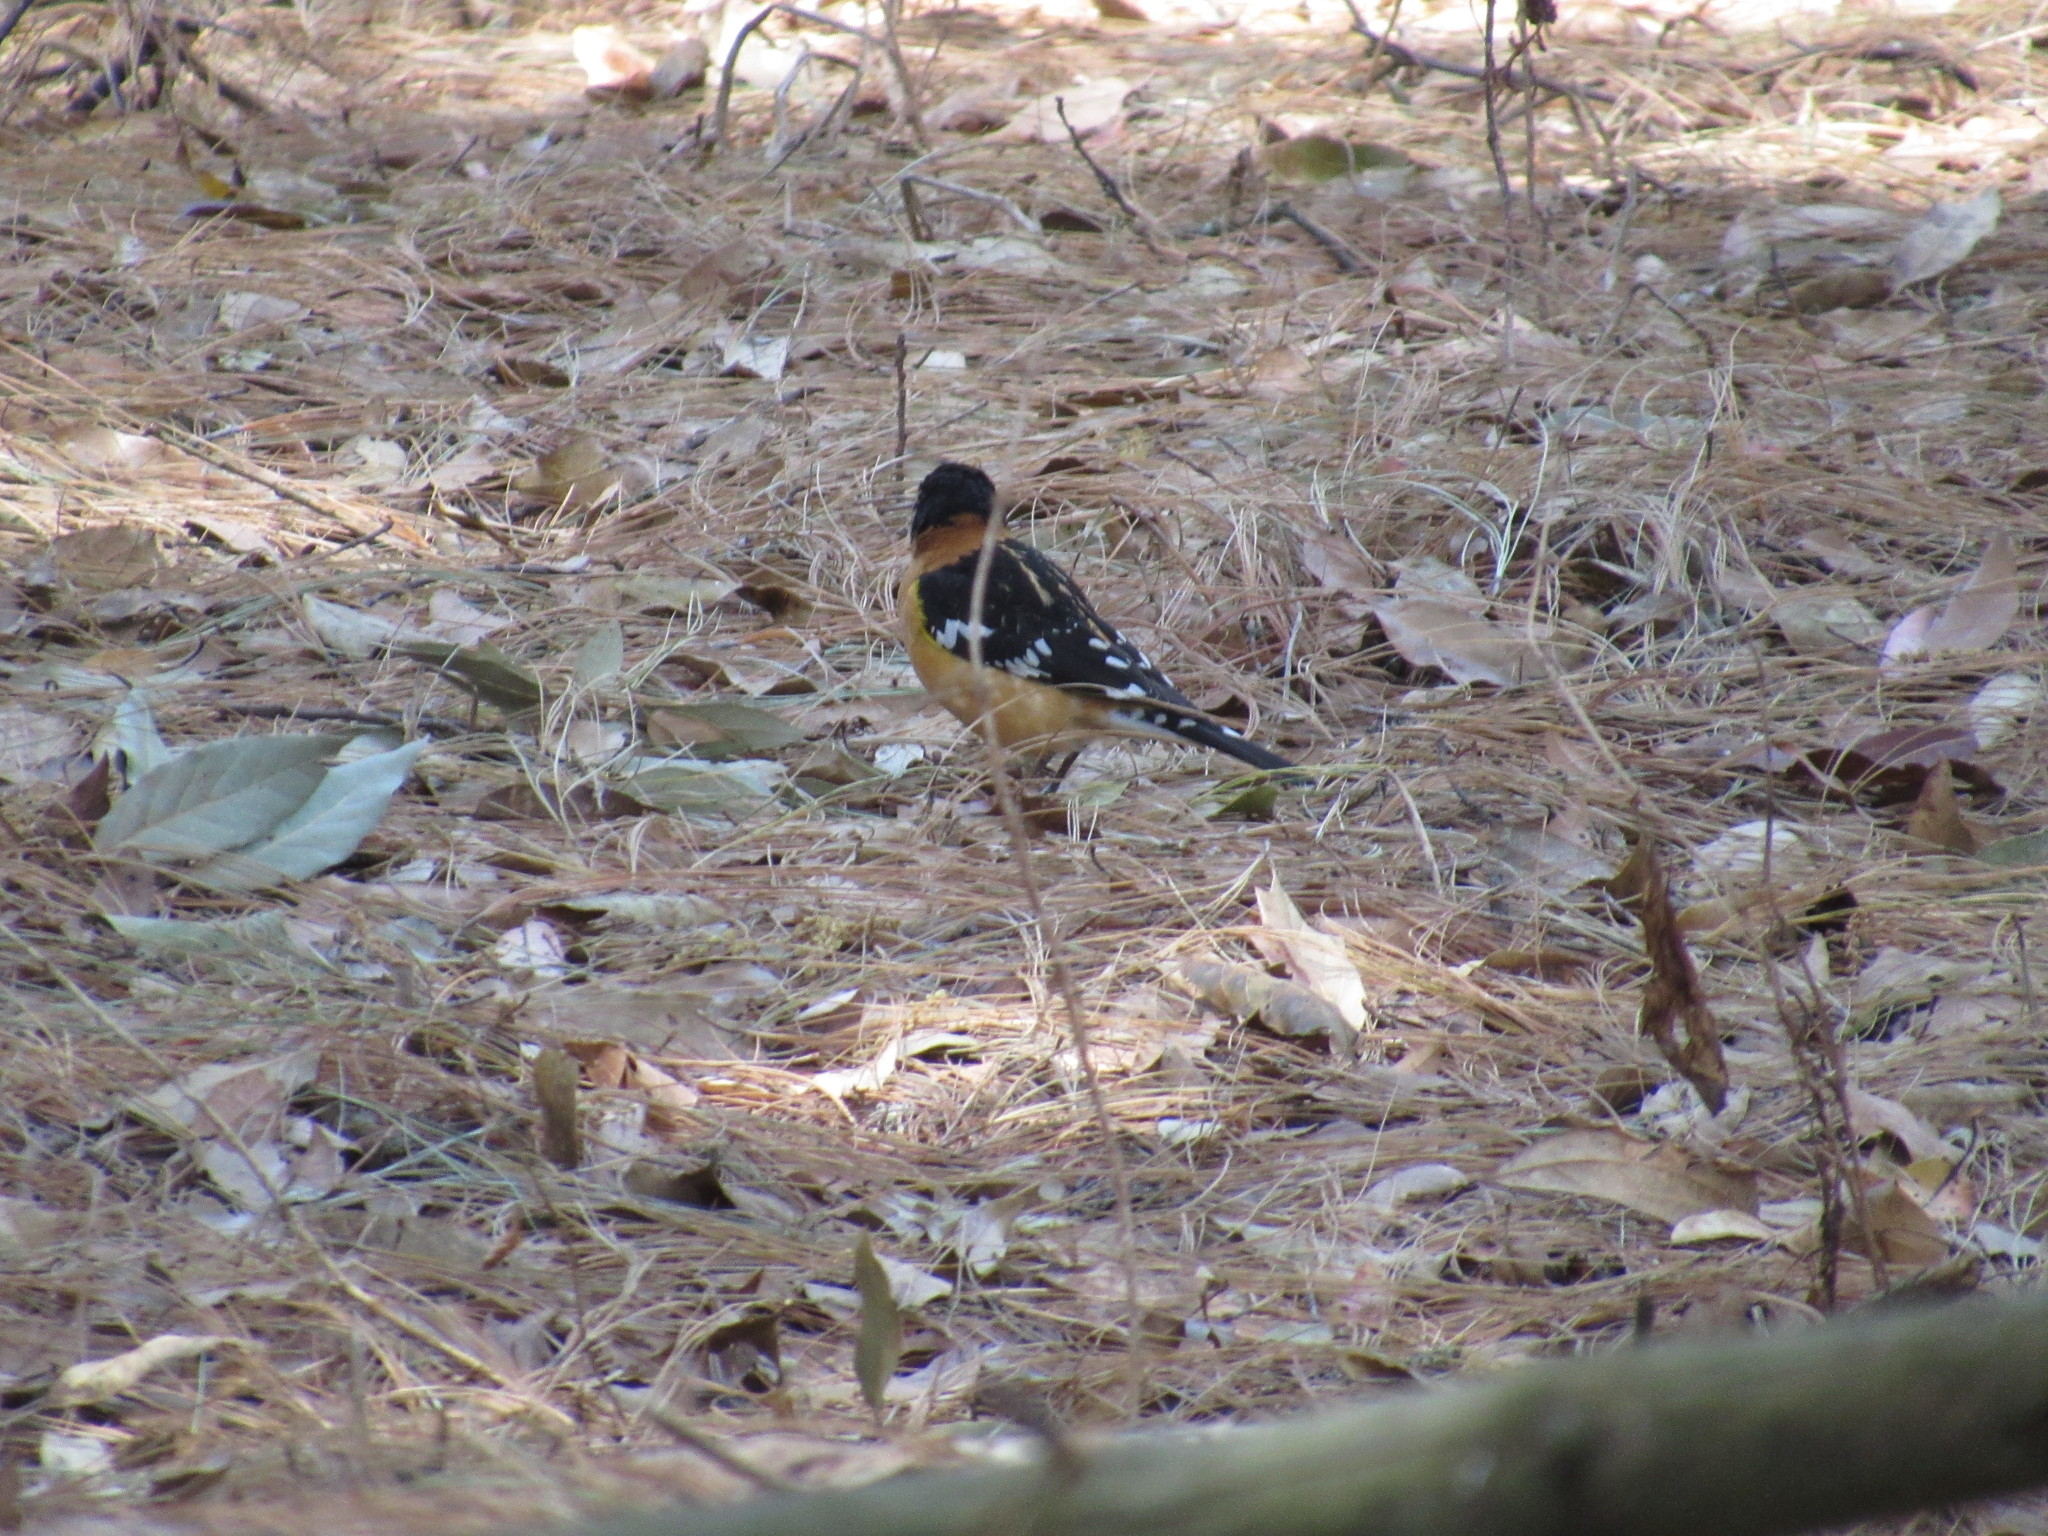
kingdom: Animalia
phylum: Chordata
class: Aves
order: Passeriformes
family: Cardinalidae
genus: Pheucticus
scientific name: Pheucticus melanocephalus
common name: Black-headed grosbeak
